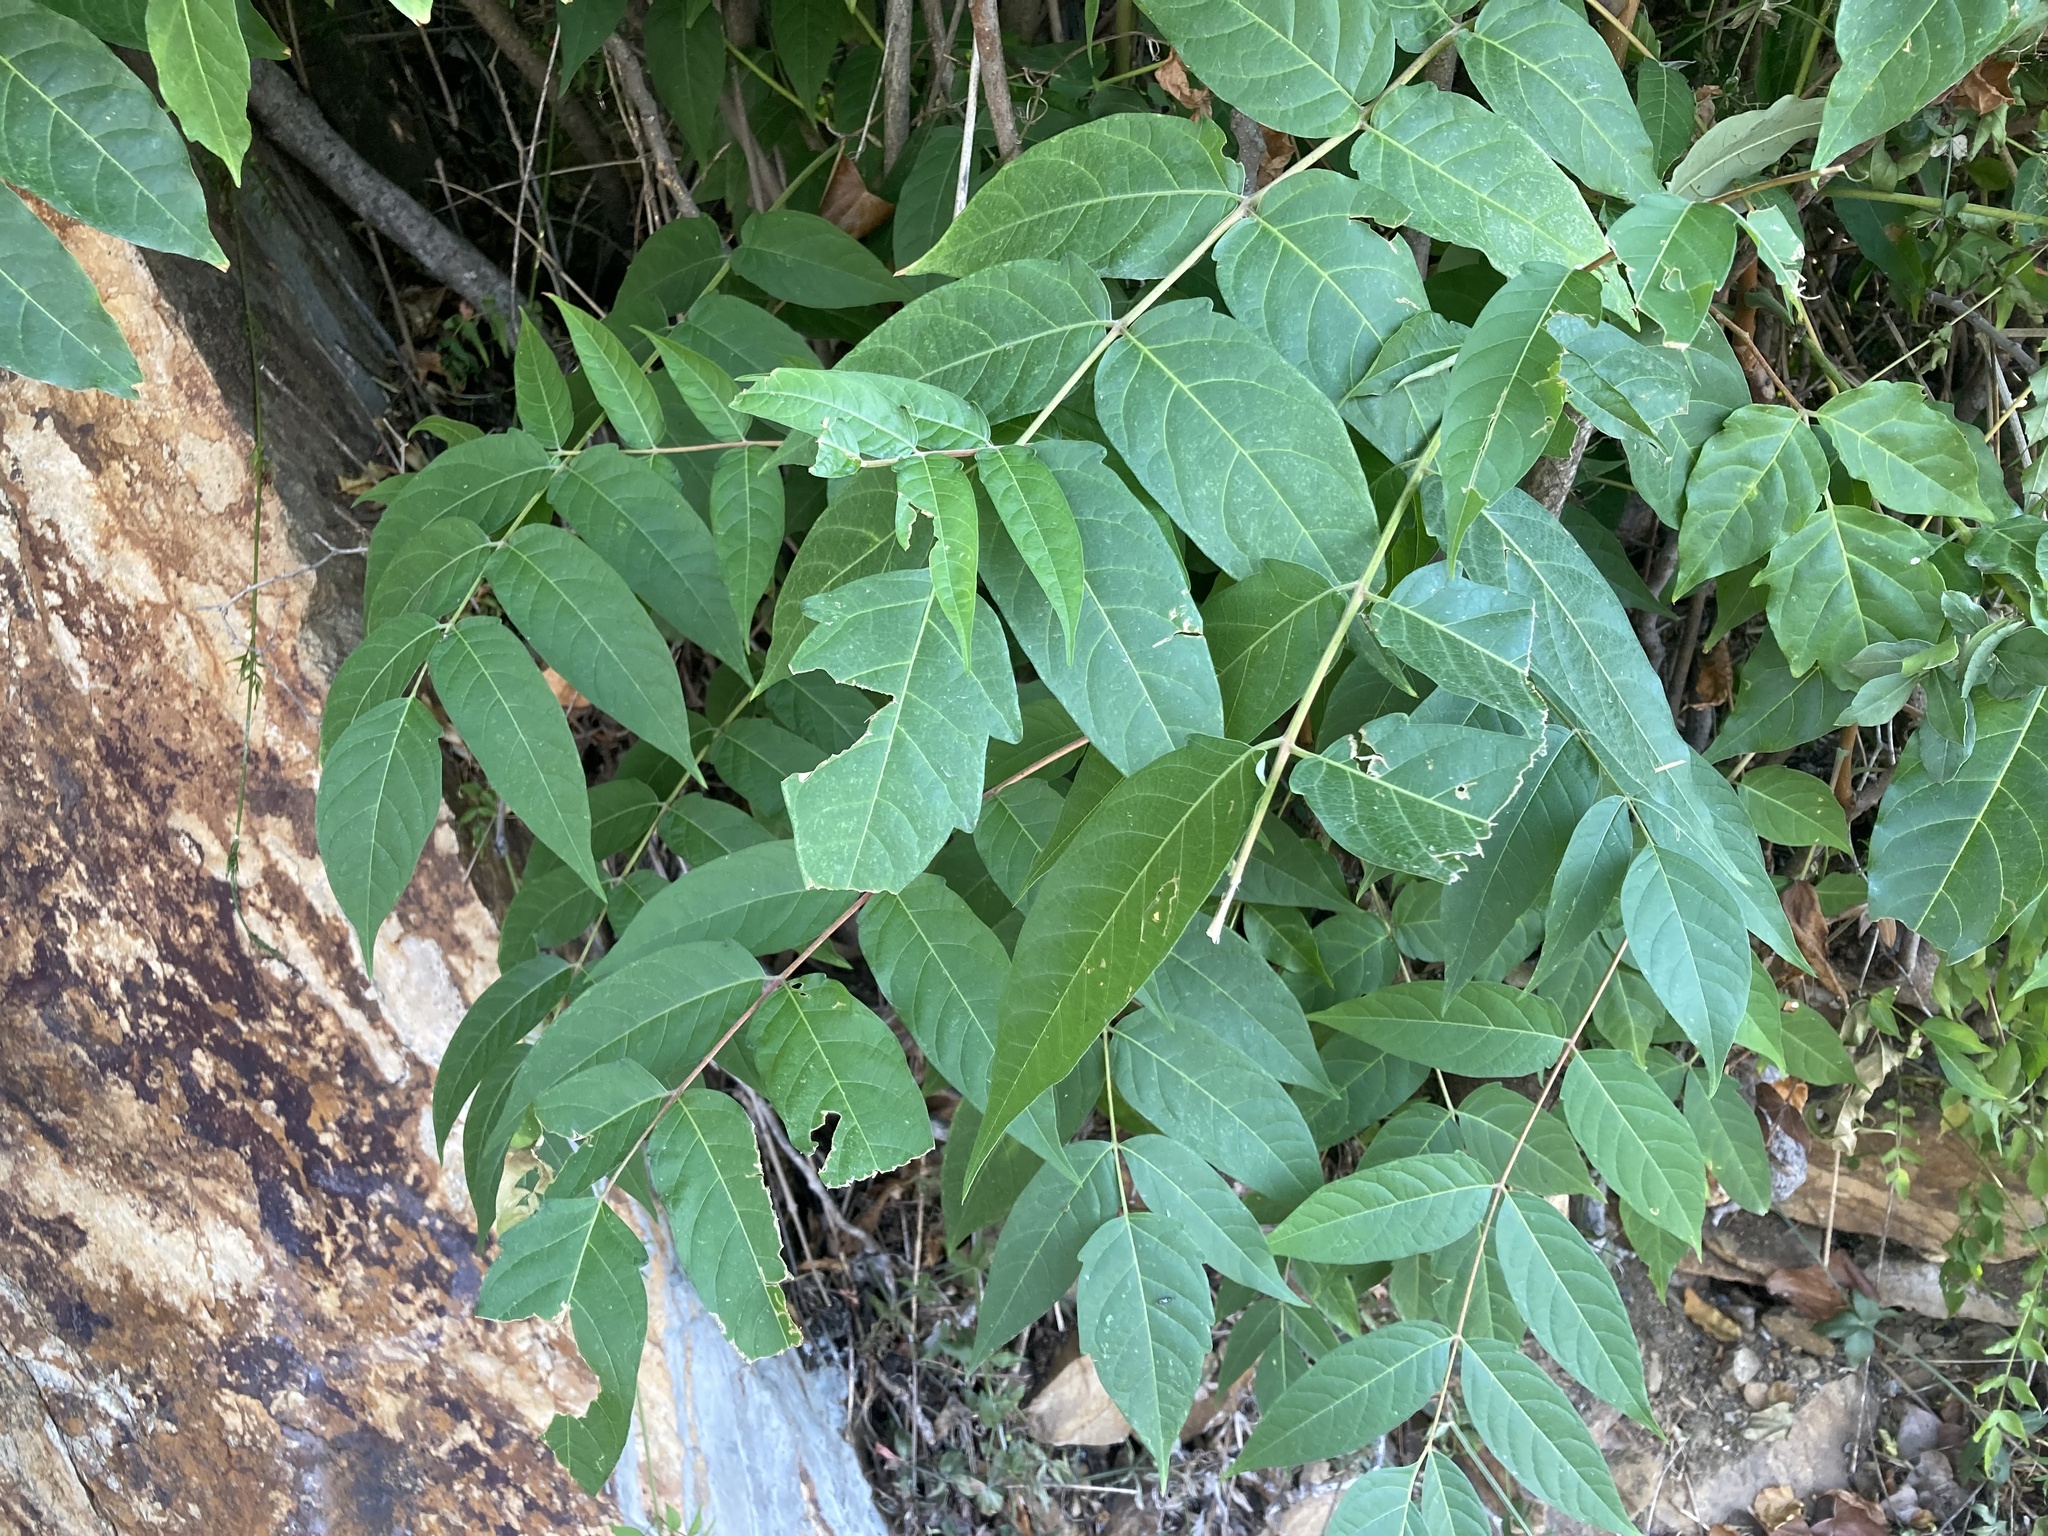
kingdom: Plantae
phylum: Tracheophyta
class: Magnoliopsida
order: Sapindales
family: Simaroubaceae
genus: Ailanthus
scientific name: Ailanthus altissima
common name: Tree-of-heaven
